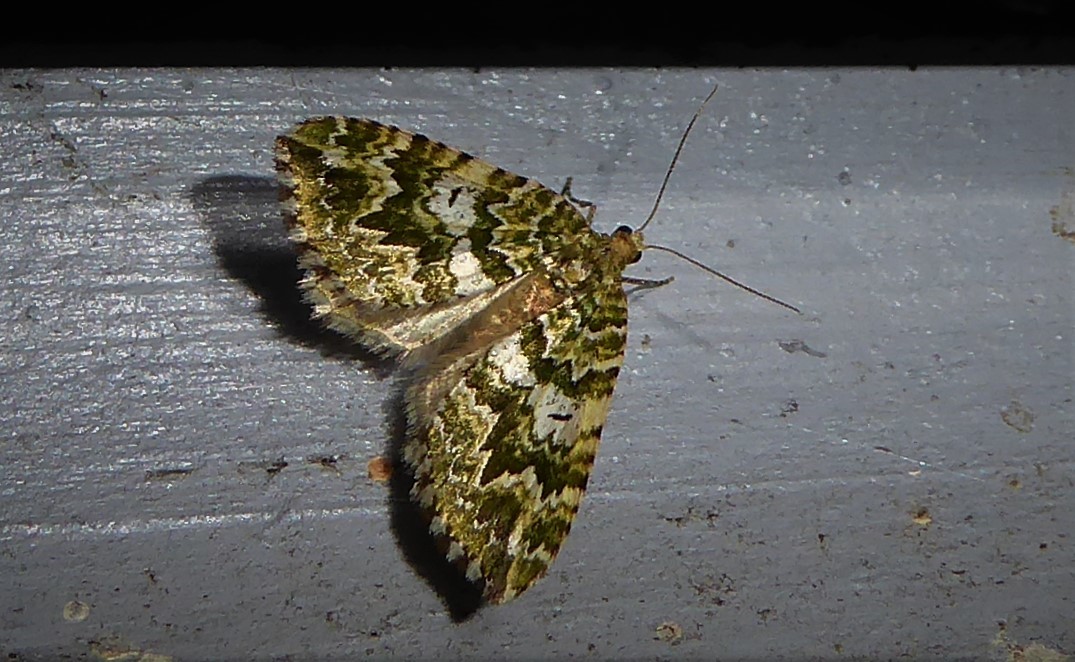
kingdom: Animalia
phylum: Arthropoda
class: Insecta
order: Lepidoptera
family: Geometridae
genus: Asaphodes
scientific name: Asaphodes beata
